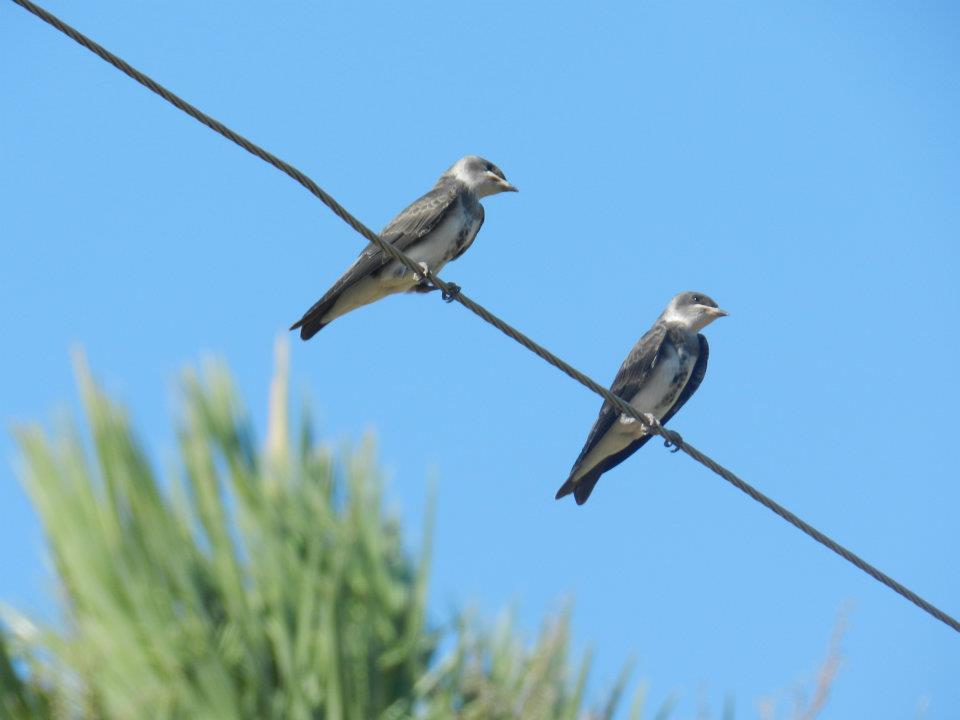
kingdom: Animalia
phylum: Chordata
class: Aves
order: Passeriformes
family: Hirundinidae
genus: Progne
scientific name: Progne tapera
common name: Brown-chested martin
